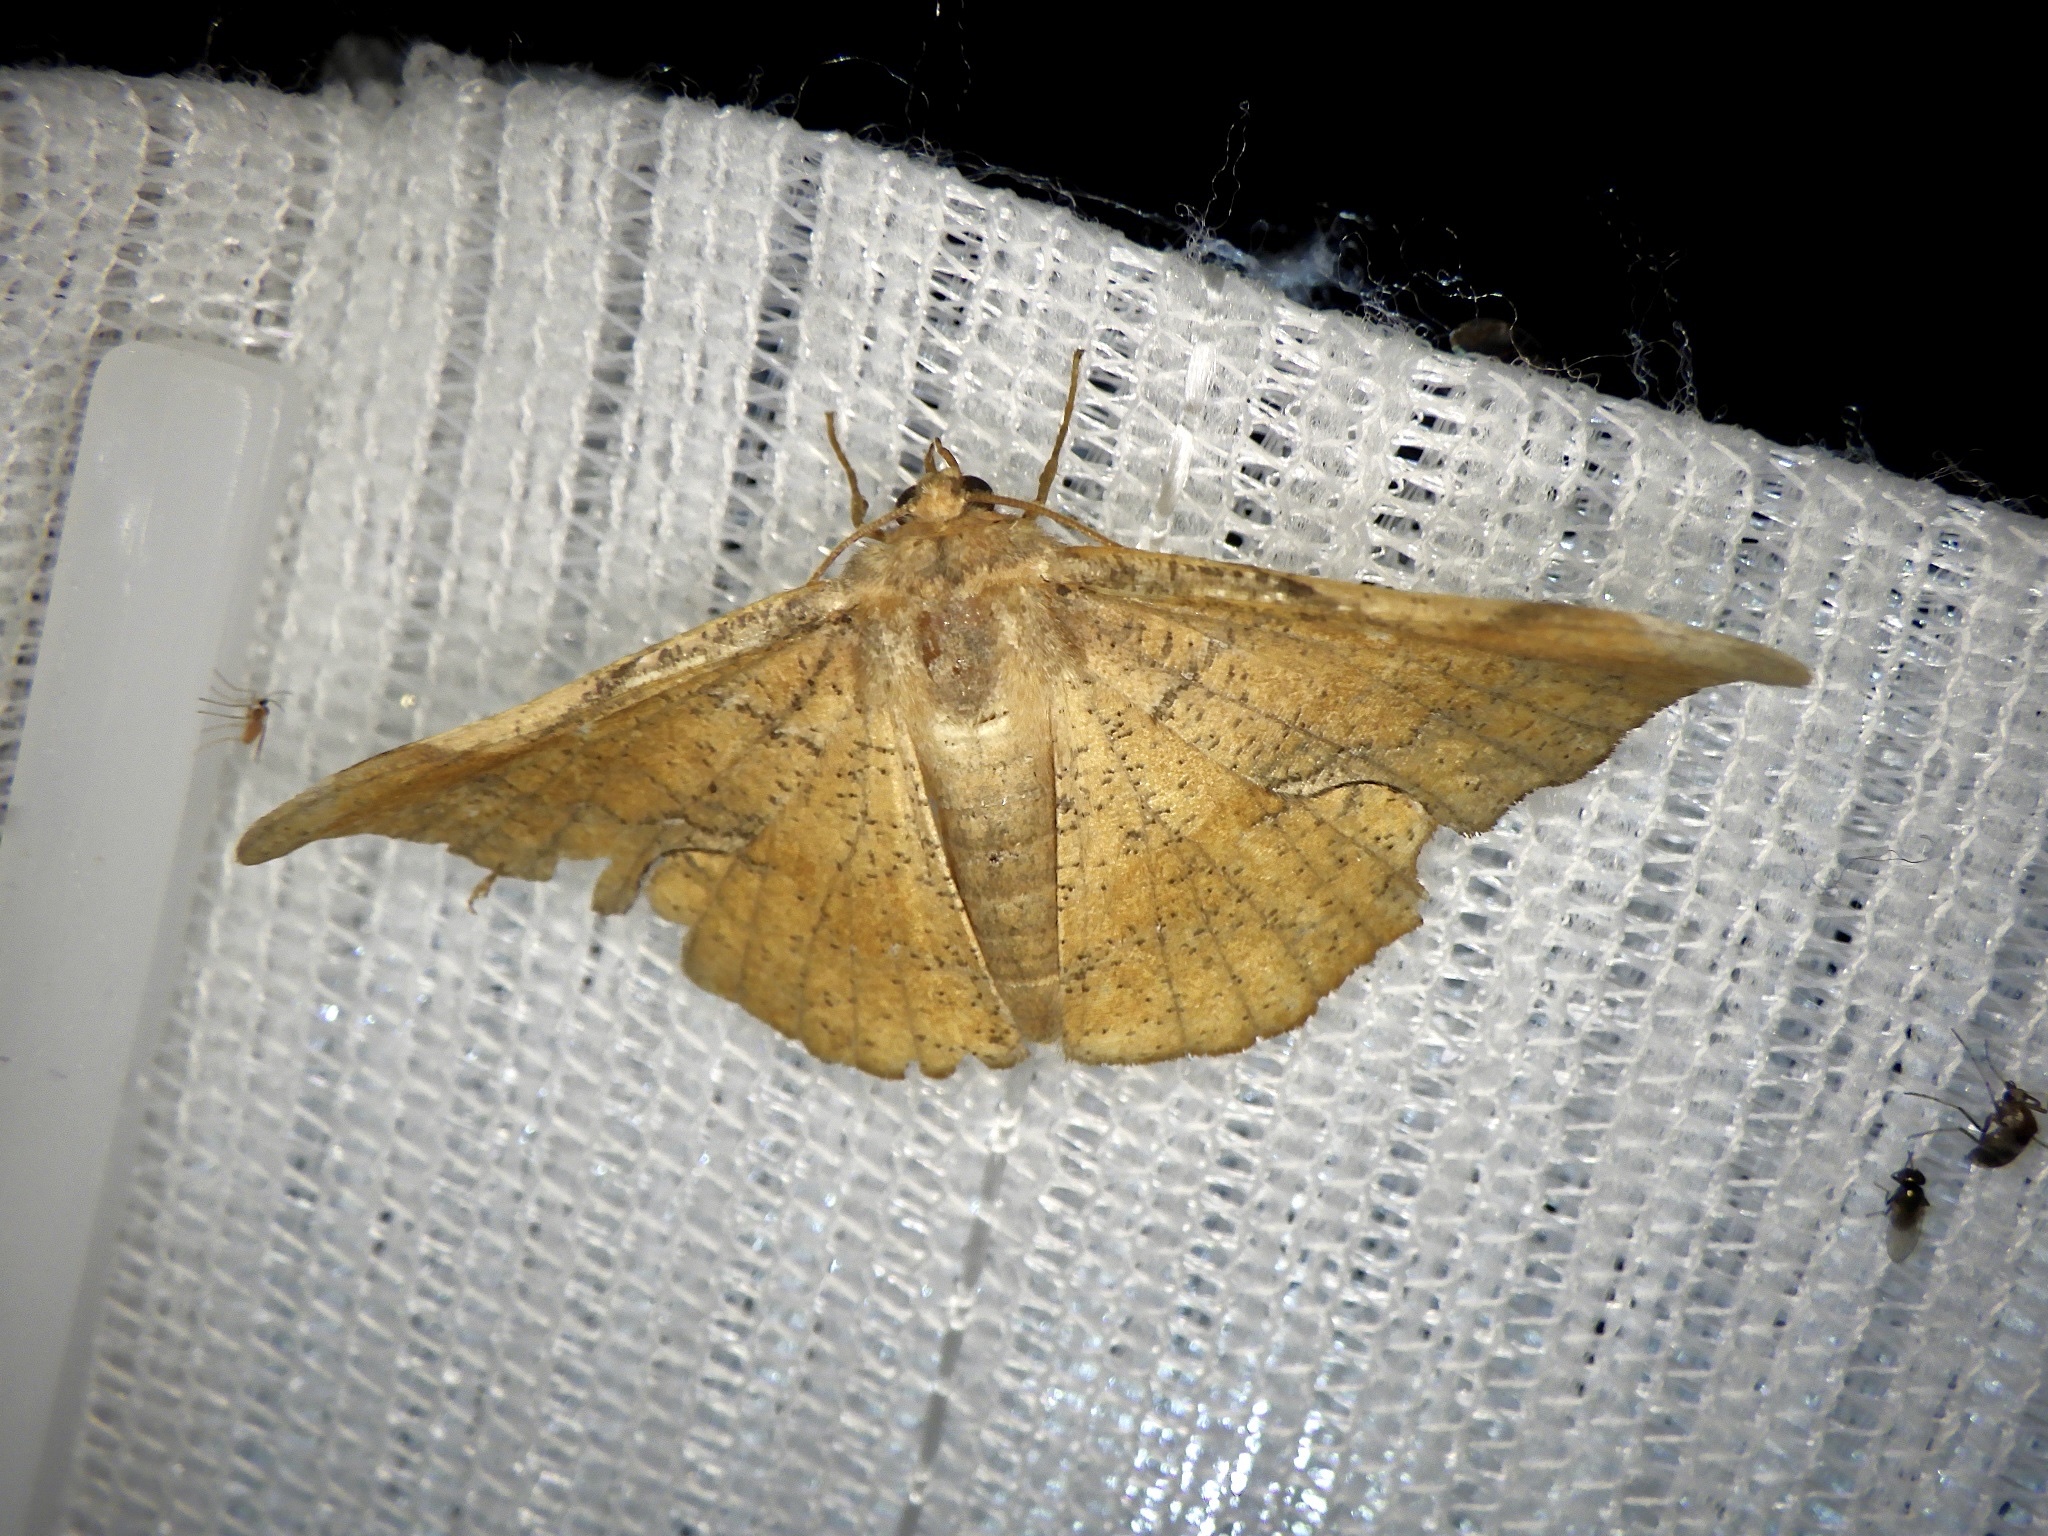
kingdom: Animalia
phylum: Arthropoda
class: Insecta
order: Lepidoptera
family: Geometridae
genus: Fascellina
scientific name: Fascellina chromataria
